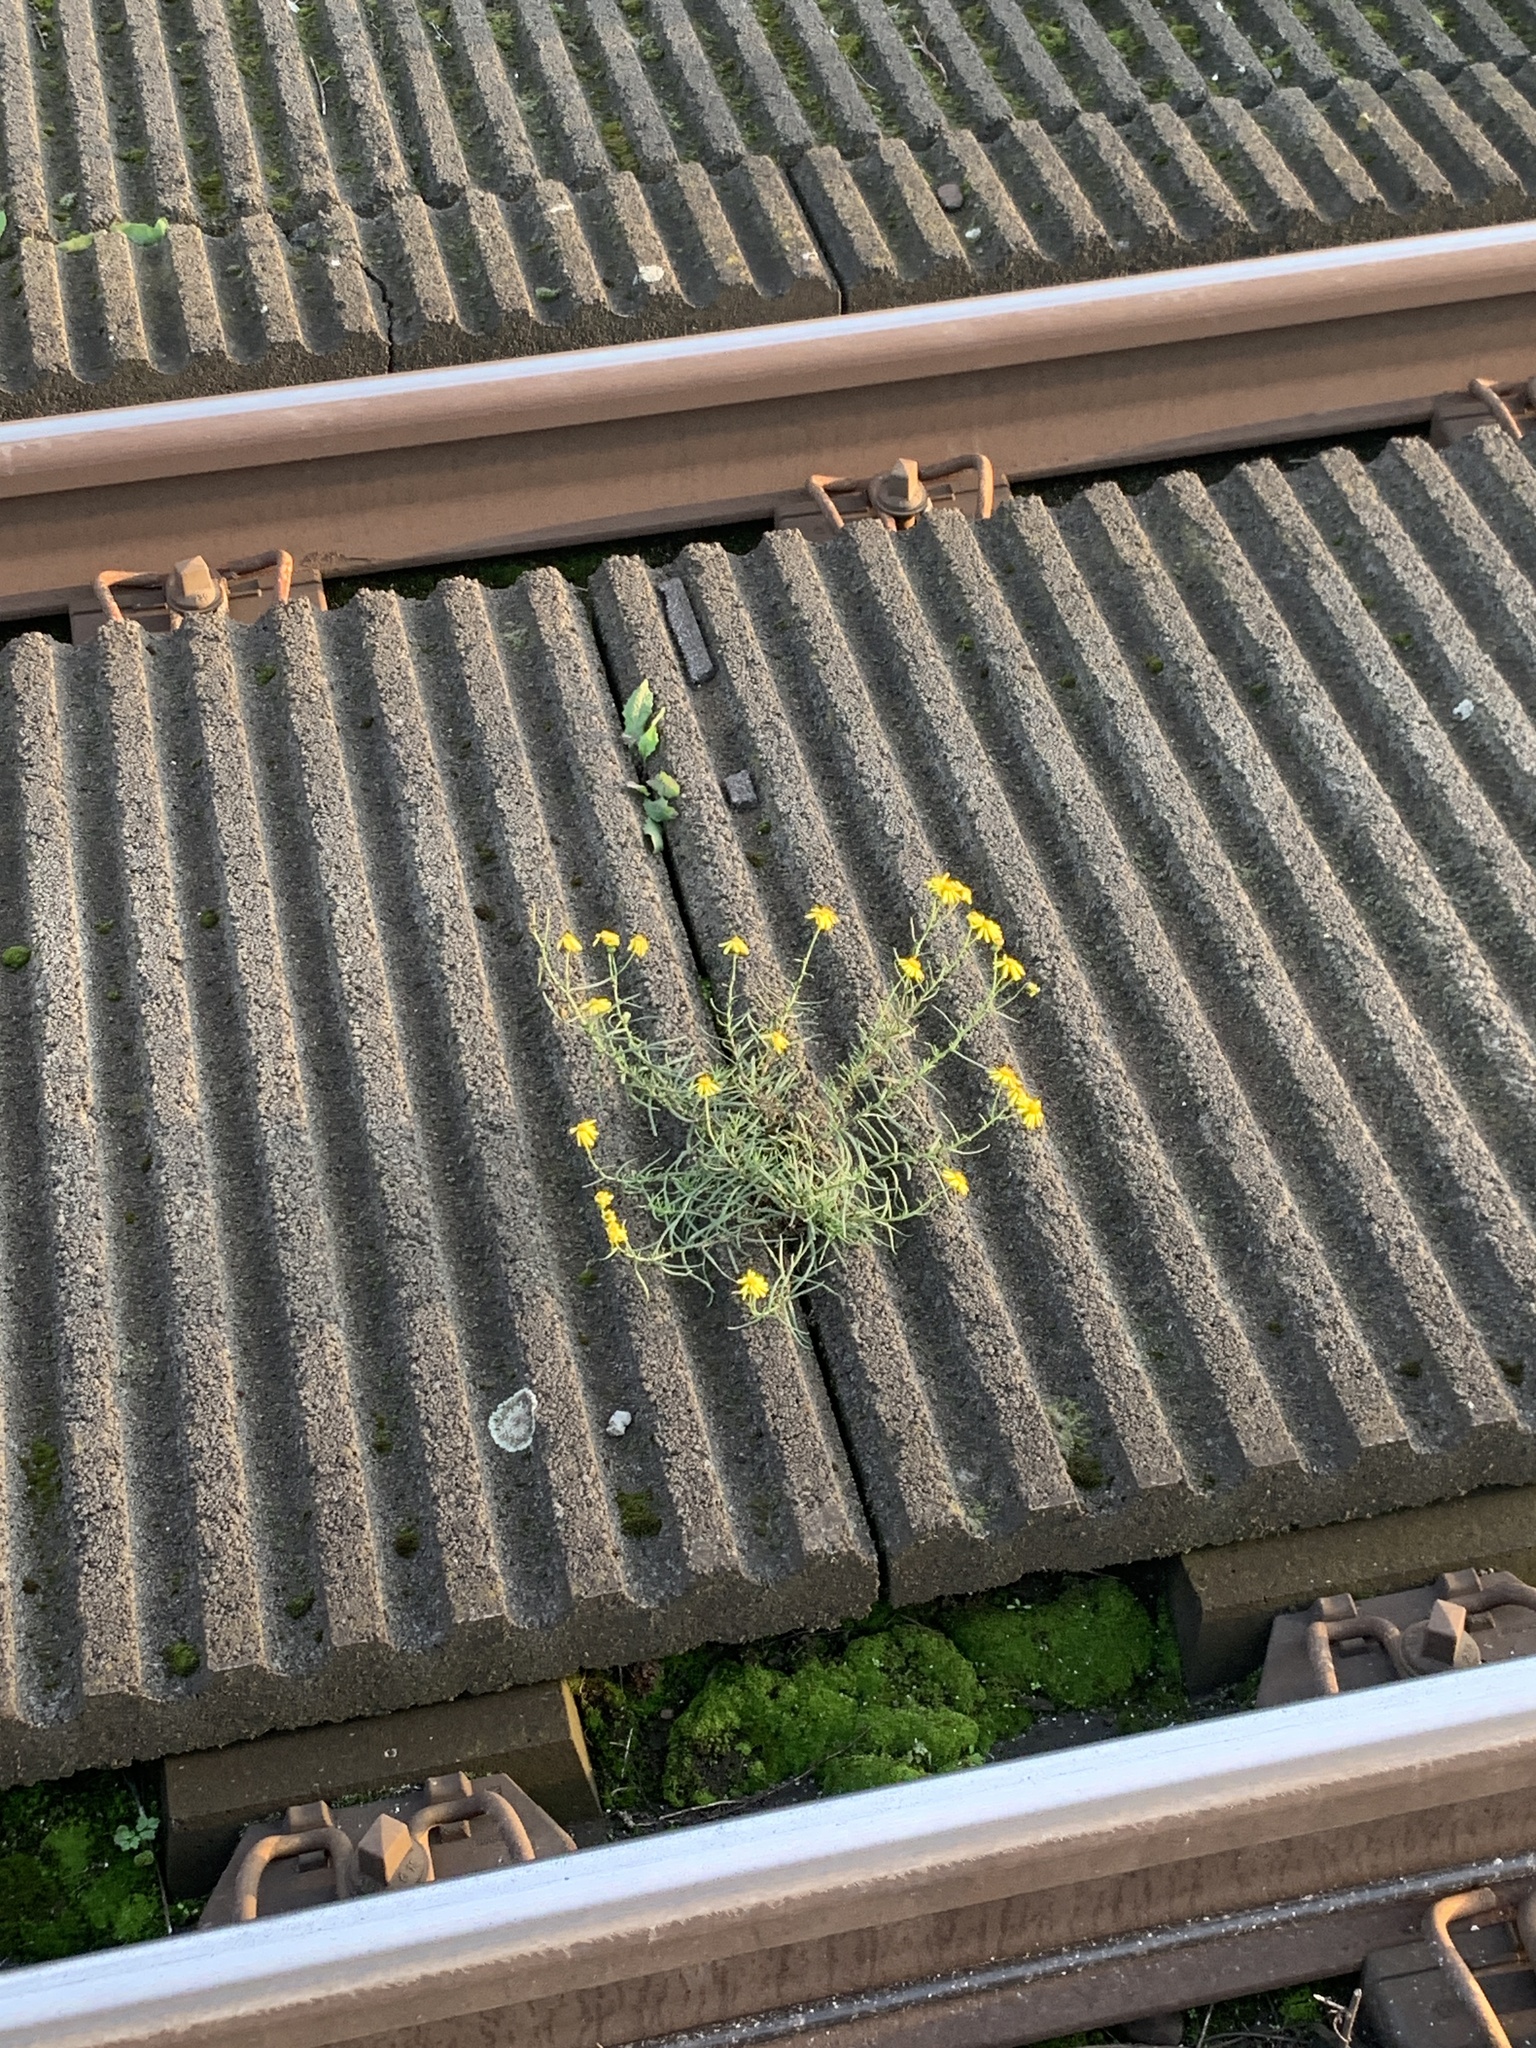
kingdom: Plantae
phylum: Tracheophyta
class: Magnoliopsida
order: Asterales
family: Asteraceae
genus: Senecio
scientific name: Senecio inaequidens
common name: Narrow-leaved ragwort
